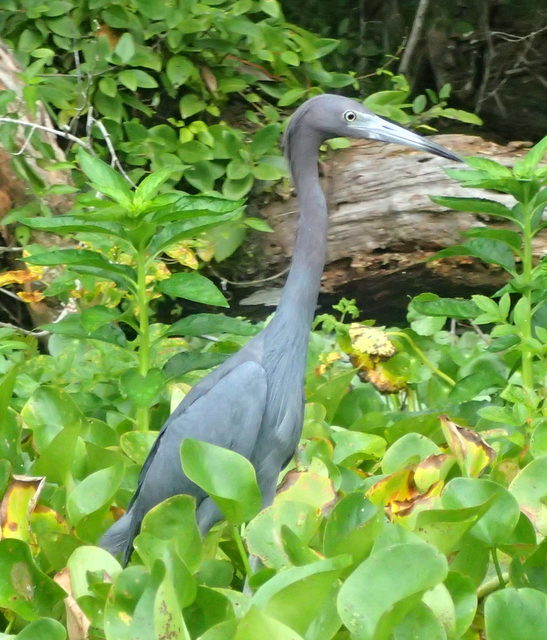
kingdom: Animalia
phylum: Chordata
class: Aves
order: Pelecaniformes
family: Ardeidae
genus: Egretta
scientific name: Egretta caerulea
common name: Little blue heron
